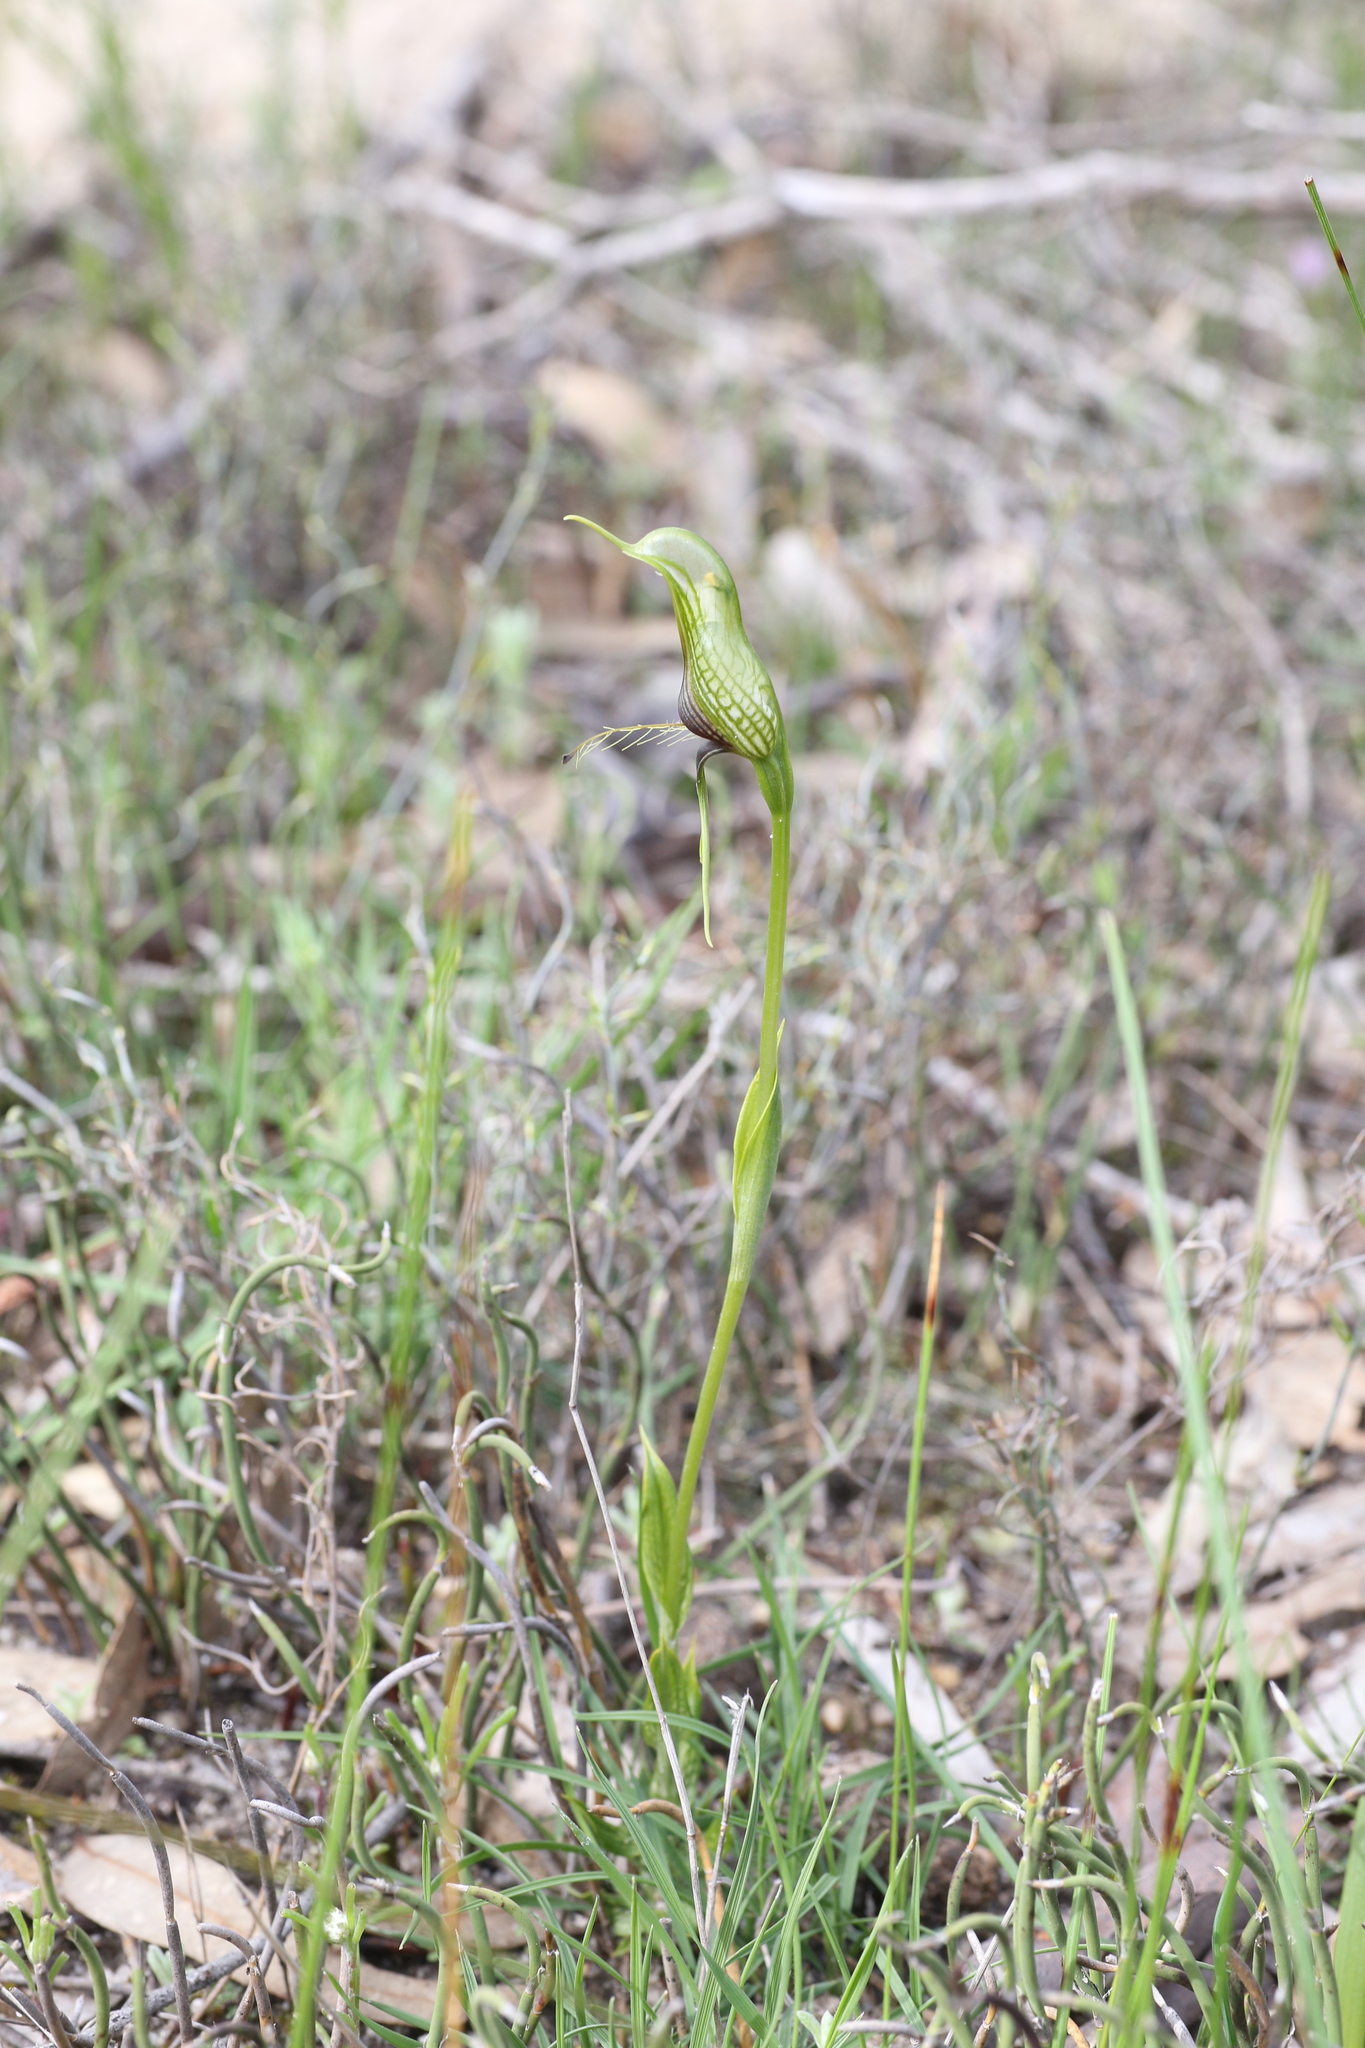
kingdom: Plantae
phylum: Tracheophyta
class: Liliopsida
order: Asparagales
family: Orchidaceae
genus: Pterostylis
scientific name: Pterostylis barbata
